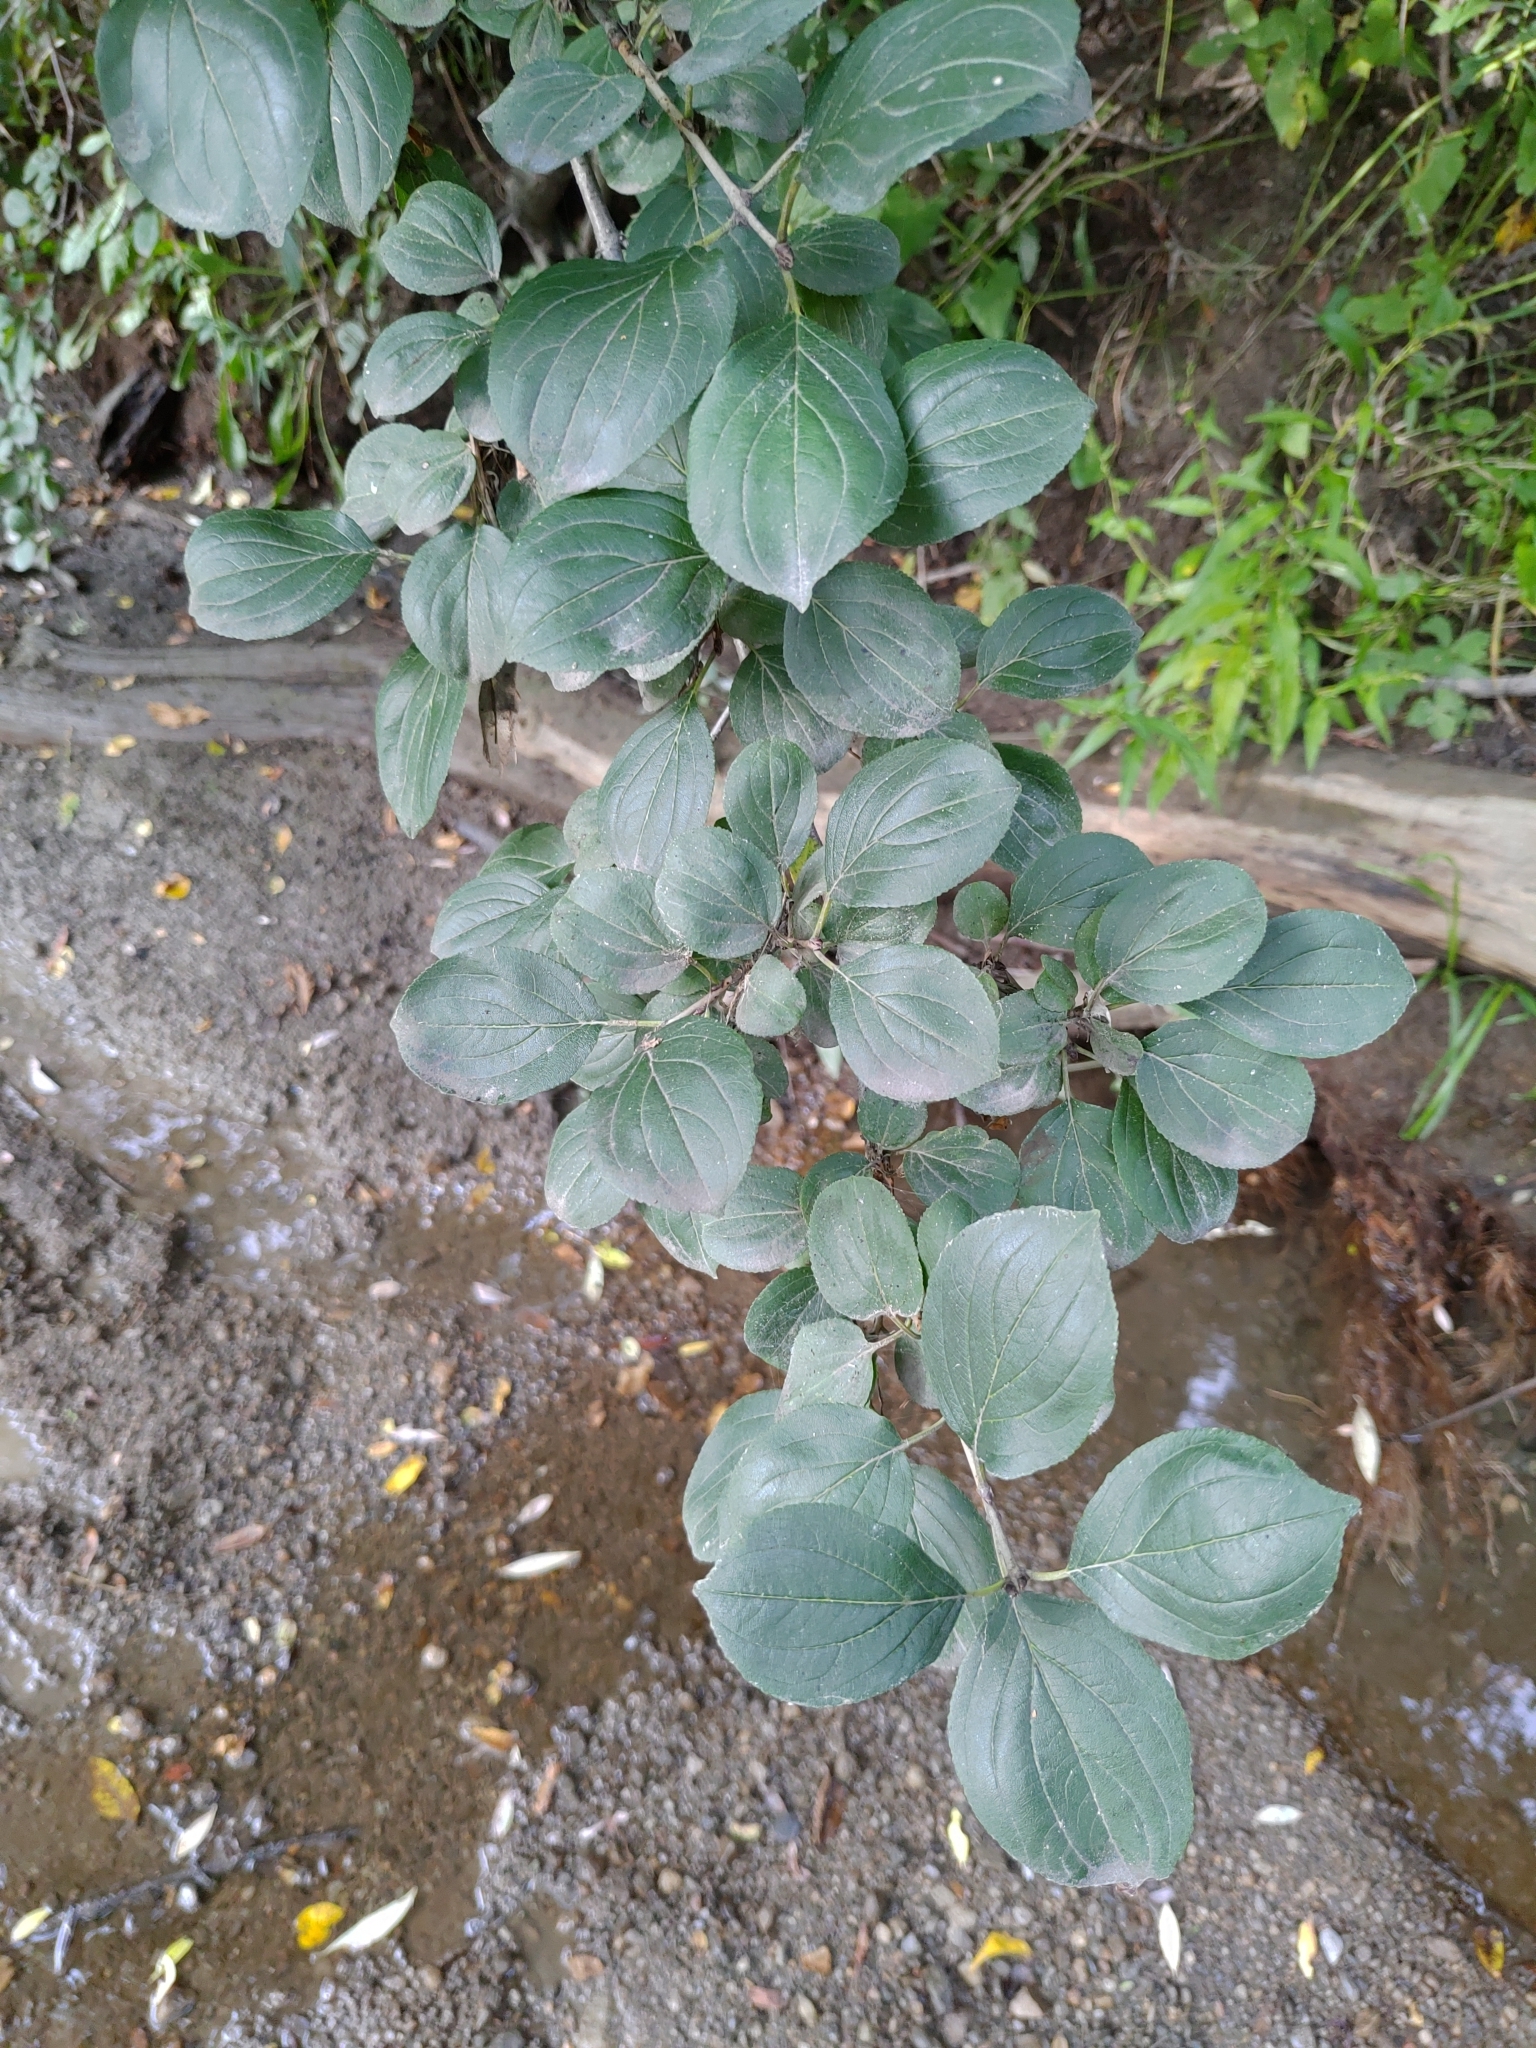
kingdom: Plantae
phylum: Tracheophyta
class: Magnoliopsida
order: Rosales
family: Rhamnaceae
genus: Rhamnus
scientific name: Rhamnus cathartica
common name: Common buckthorn
